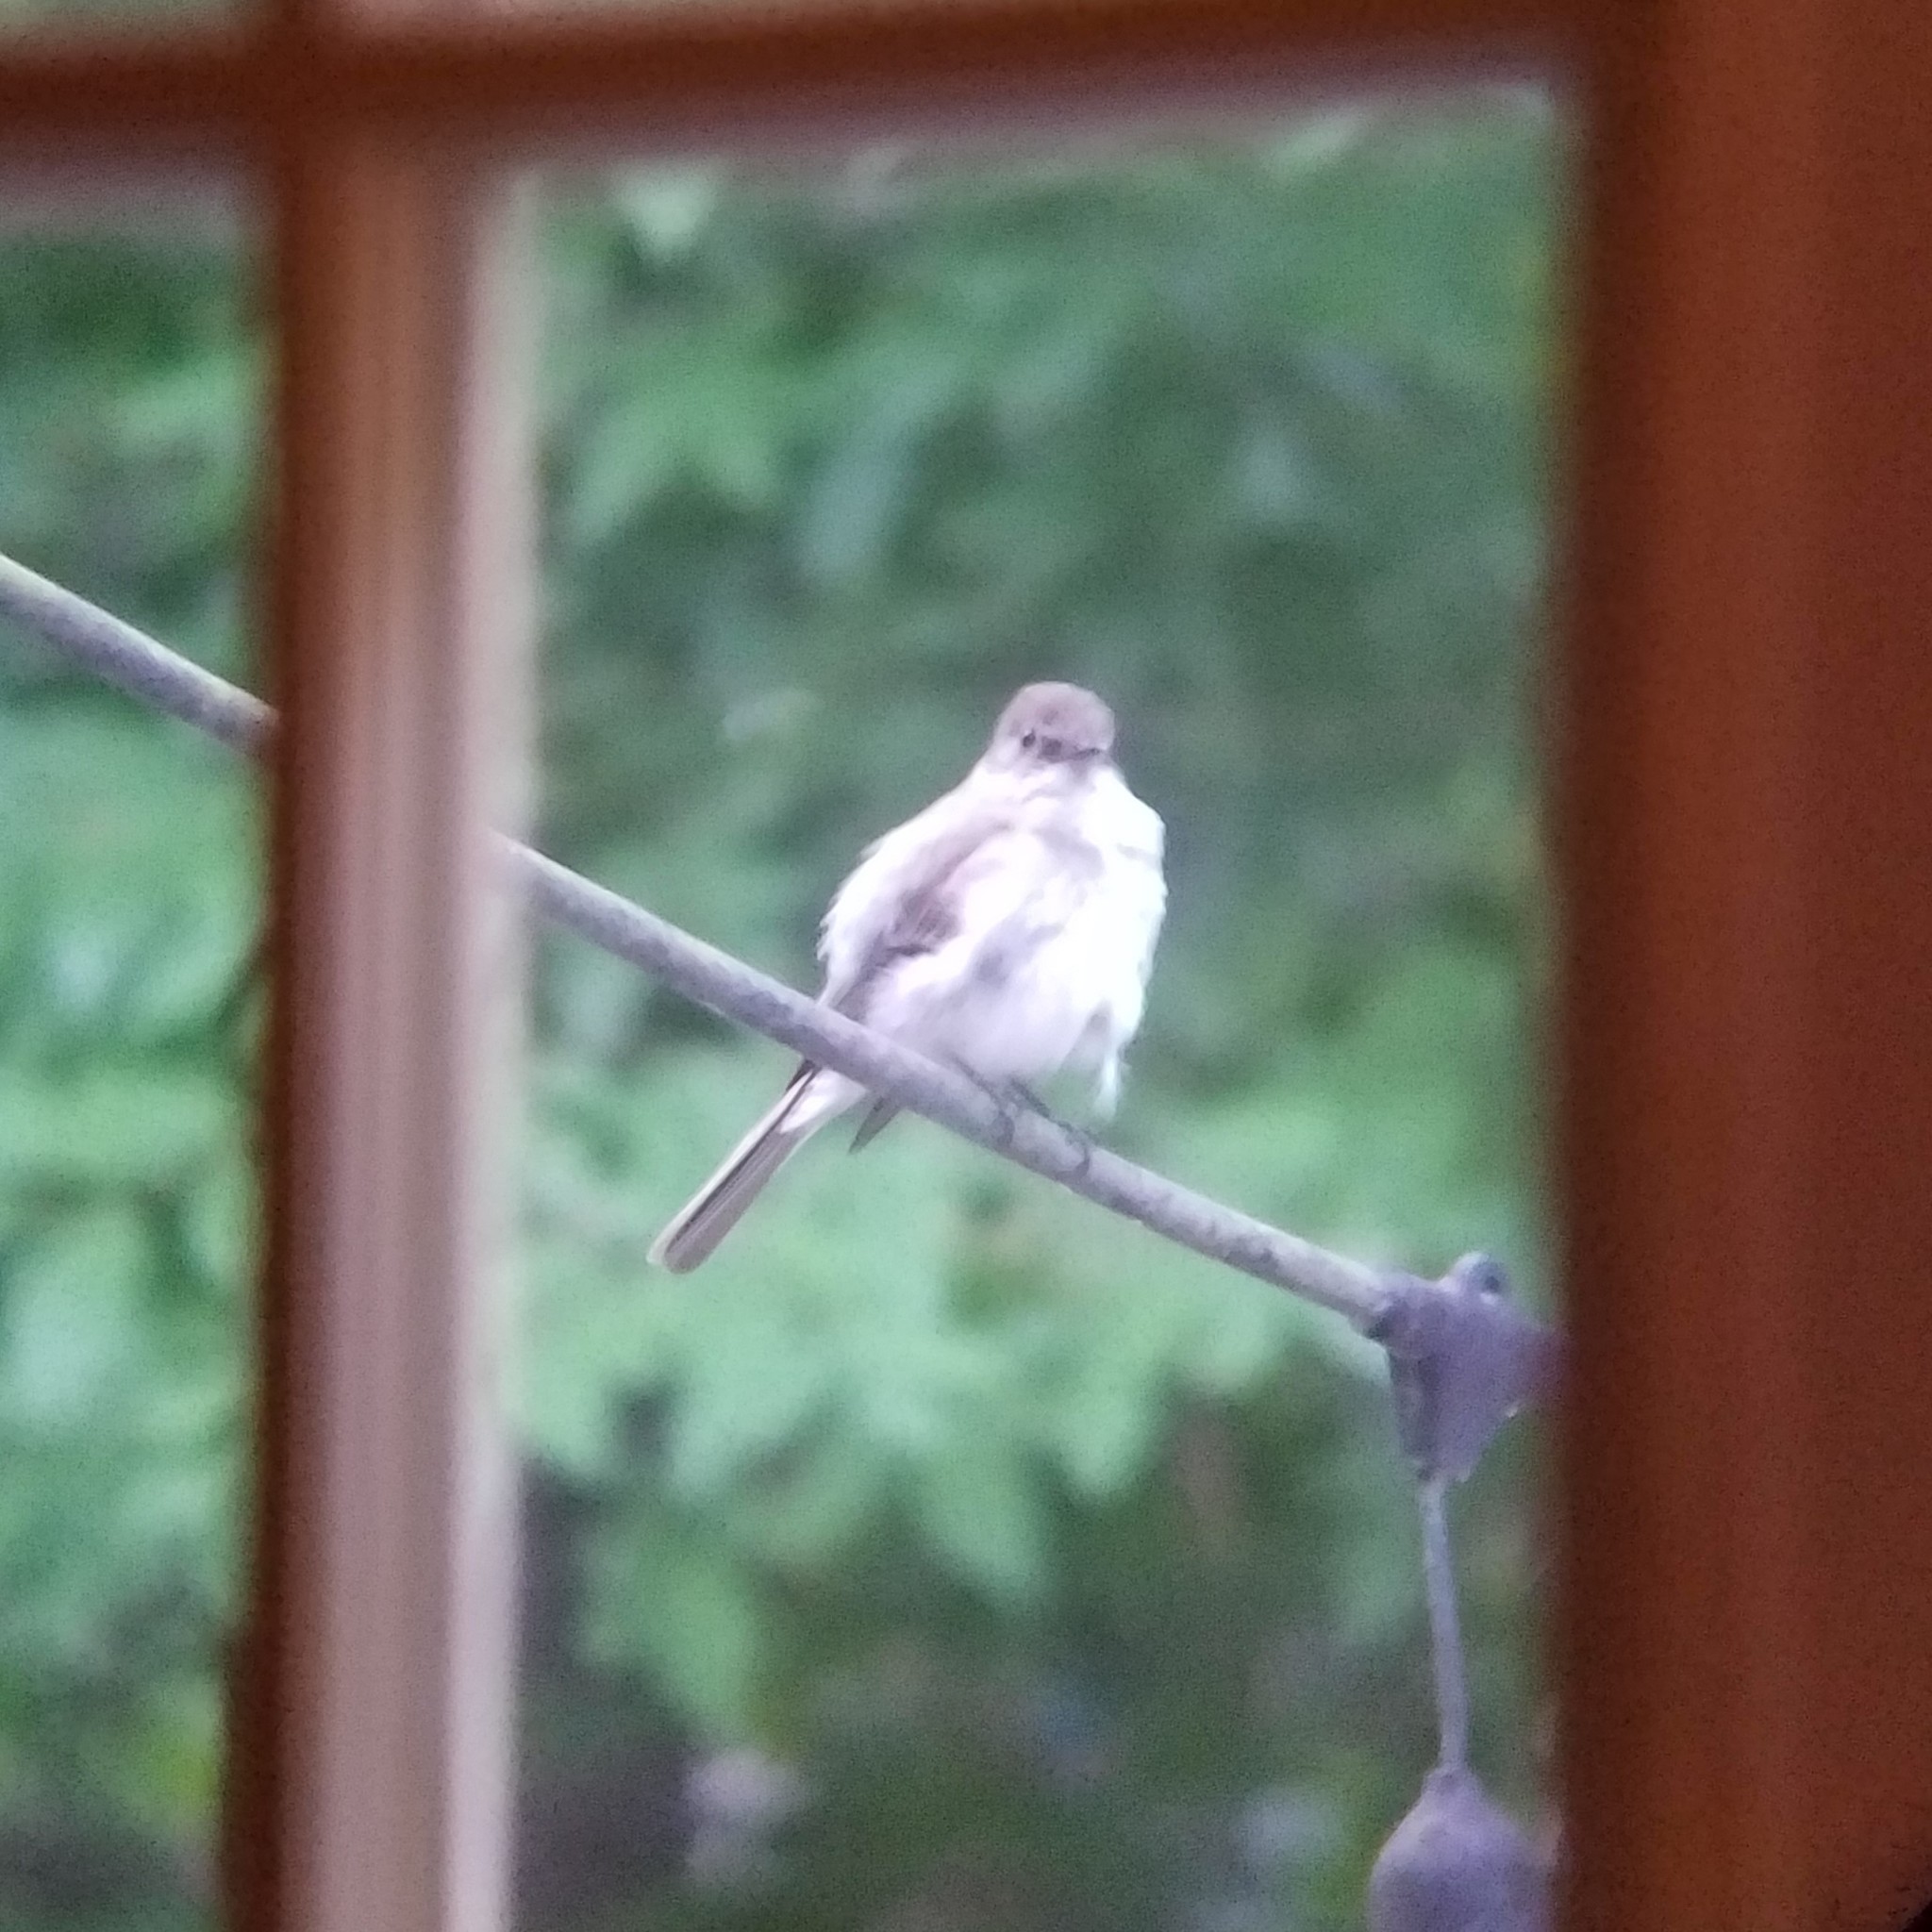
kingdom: Animalia
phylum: Chordata
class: Aves
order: Passeriformes
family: Tyrannidae
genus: Sayornis
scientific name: Sayornis phoebe
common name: Eastern phoebe
